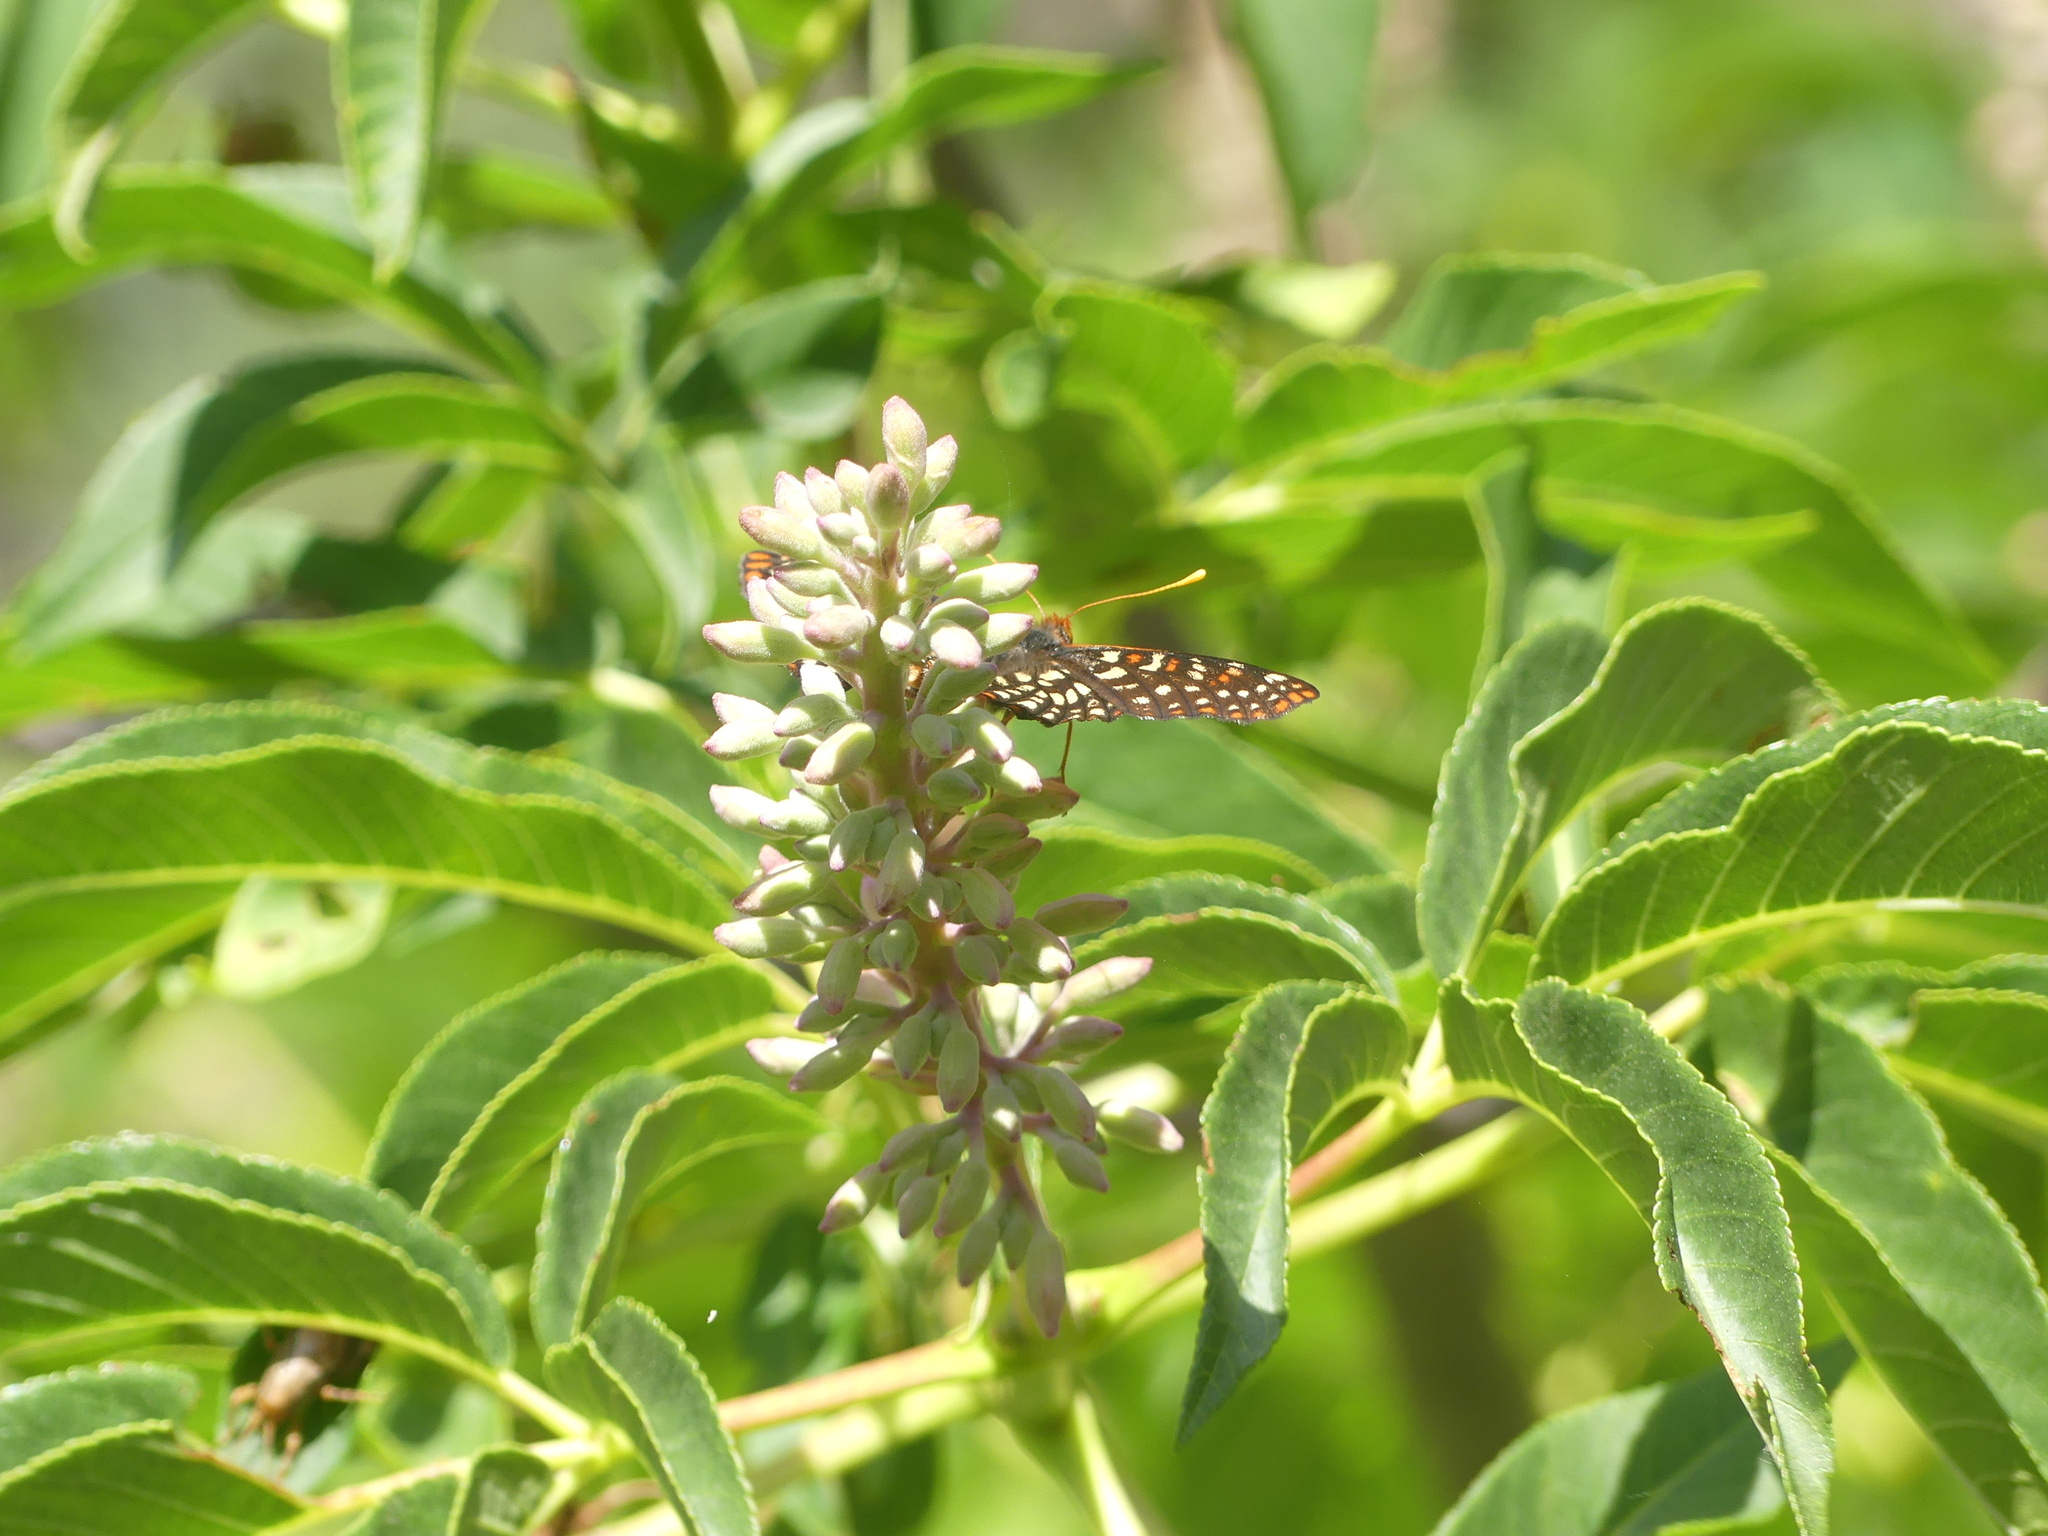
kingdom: Animalia
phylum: Arthropoda
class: Insecta
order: Lepidoptera
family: Nymphalidae
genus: Occidryas
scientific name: Occidryas chalcedona
